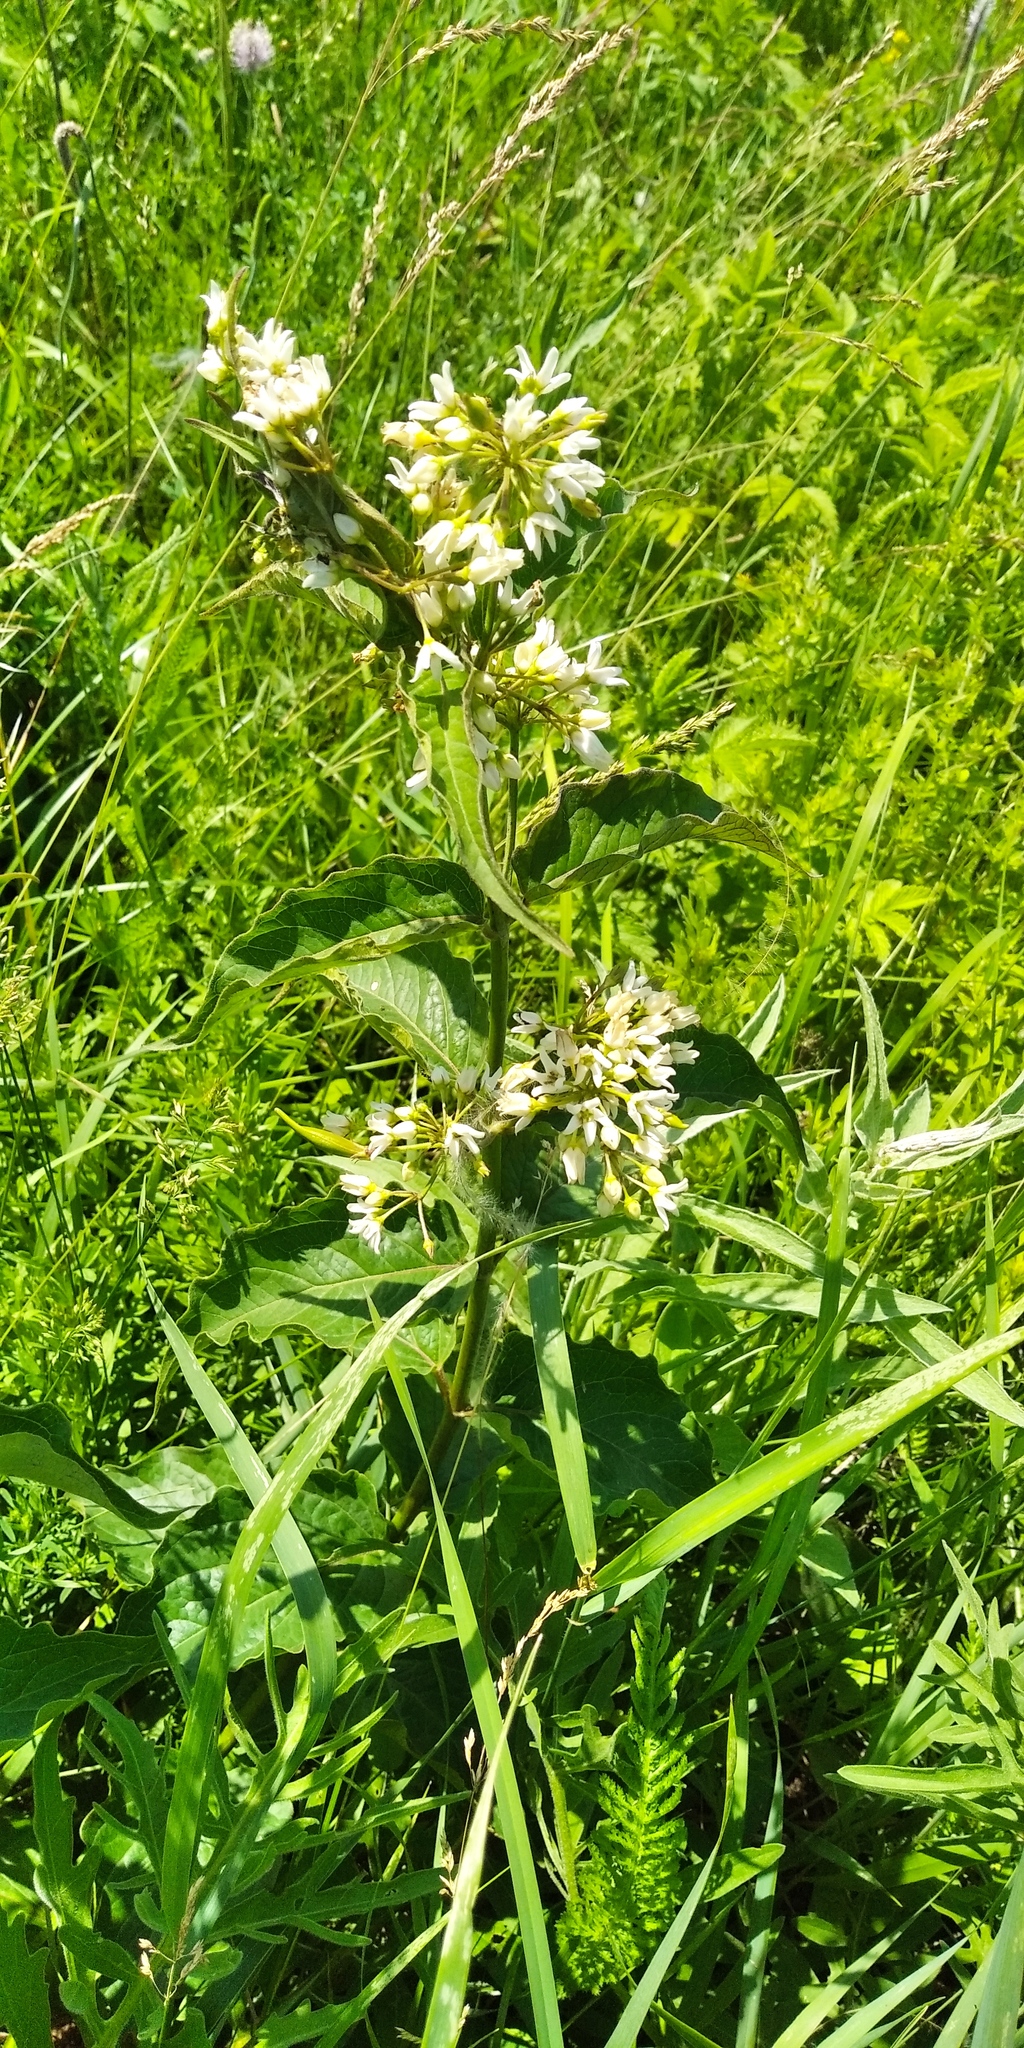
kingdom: Plantae
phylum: Tracheophyta
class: Magnoliopsida
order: Gentianales
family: Apocynaceae
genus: Vincetoxicum
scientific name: Vincetoxicum hirundinaria
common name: White swallowwort
